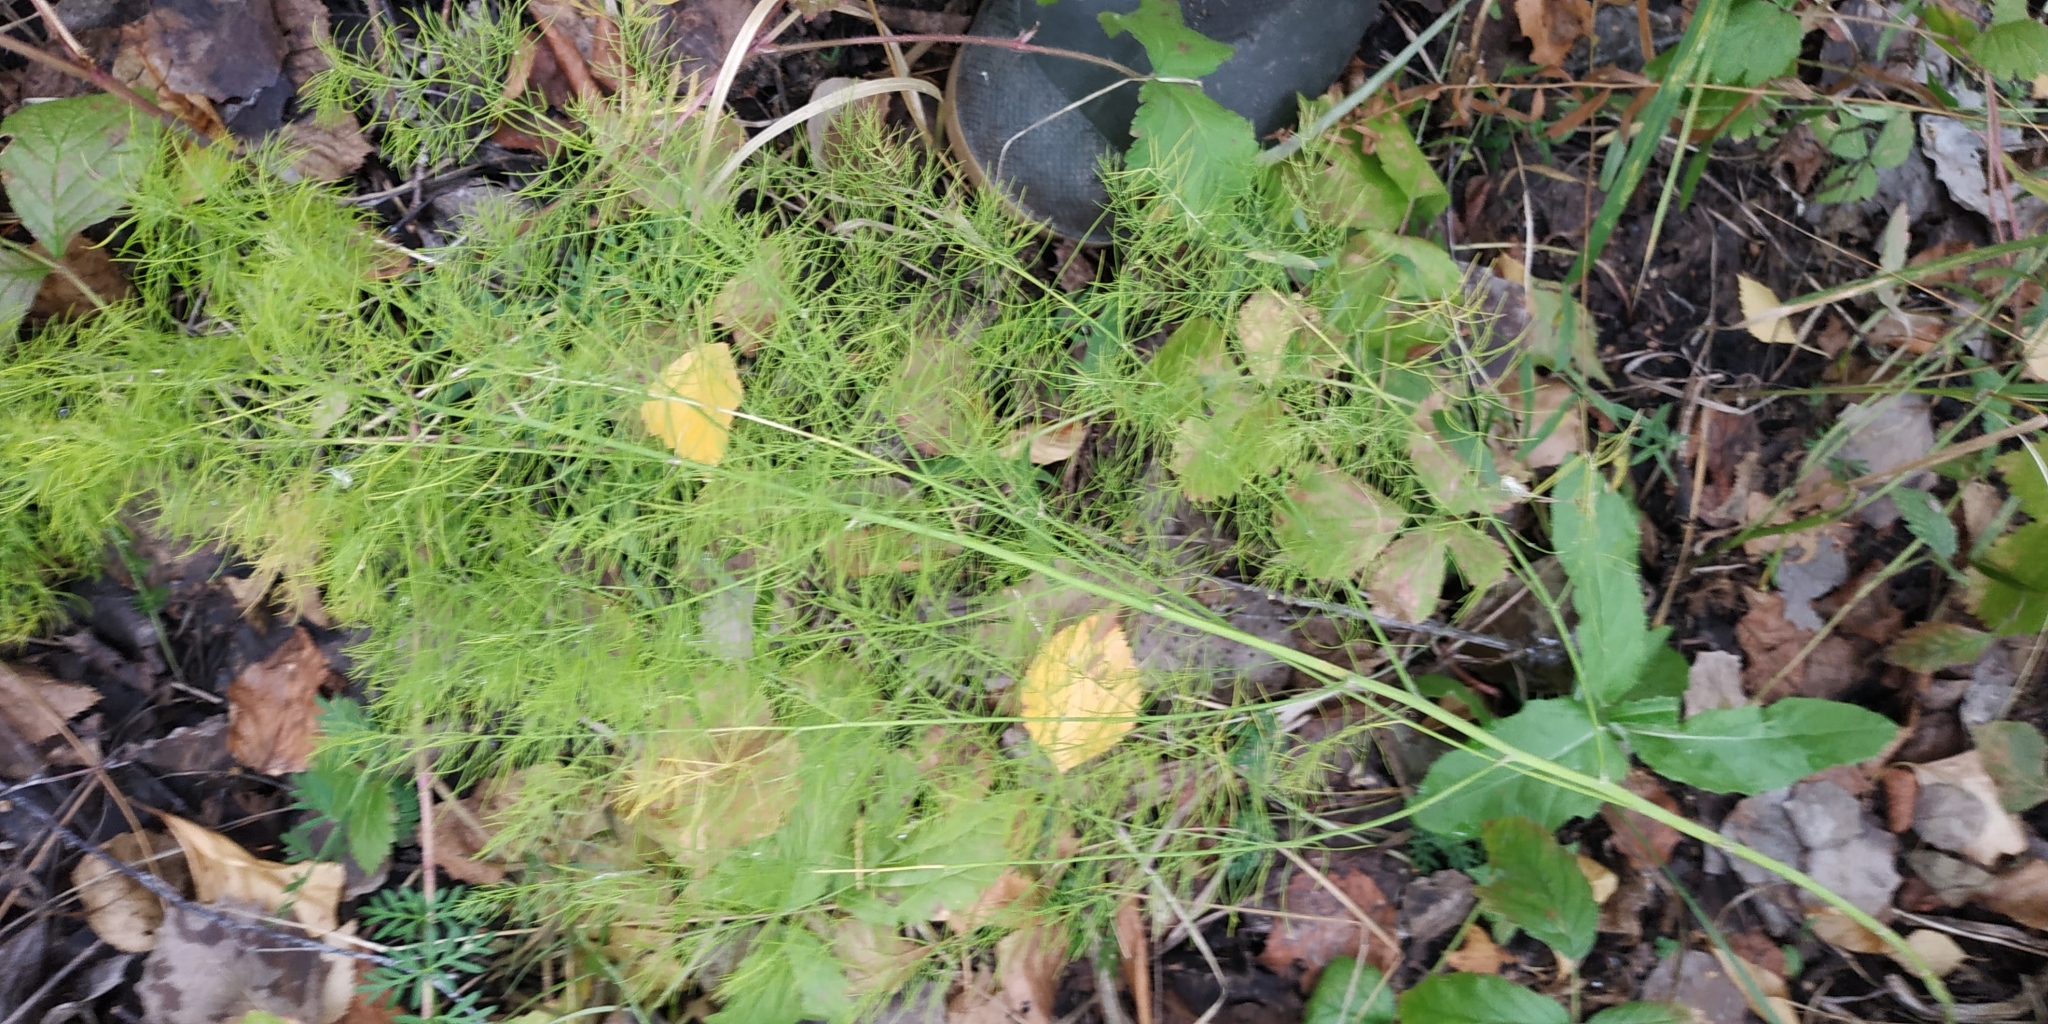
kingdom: Plantae
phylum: Tracheophyta
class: Liliopsida
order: Asparagales
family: Asparagaceae
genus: Asparagus
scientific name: Asparagus officinalis
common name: Garden asparagus
